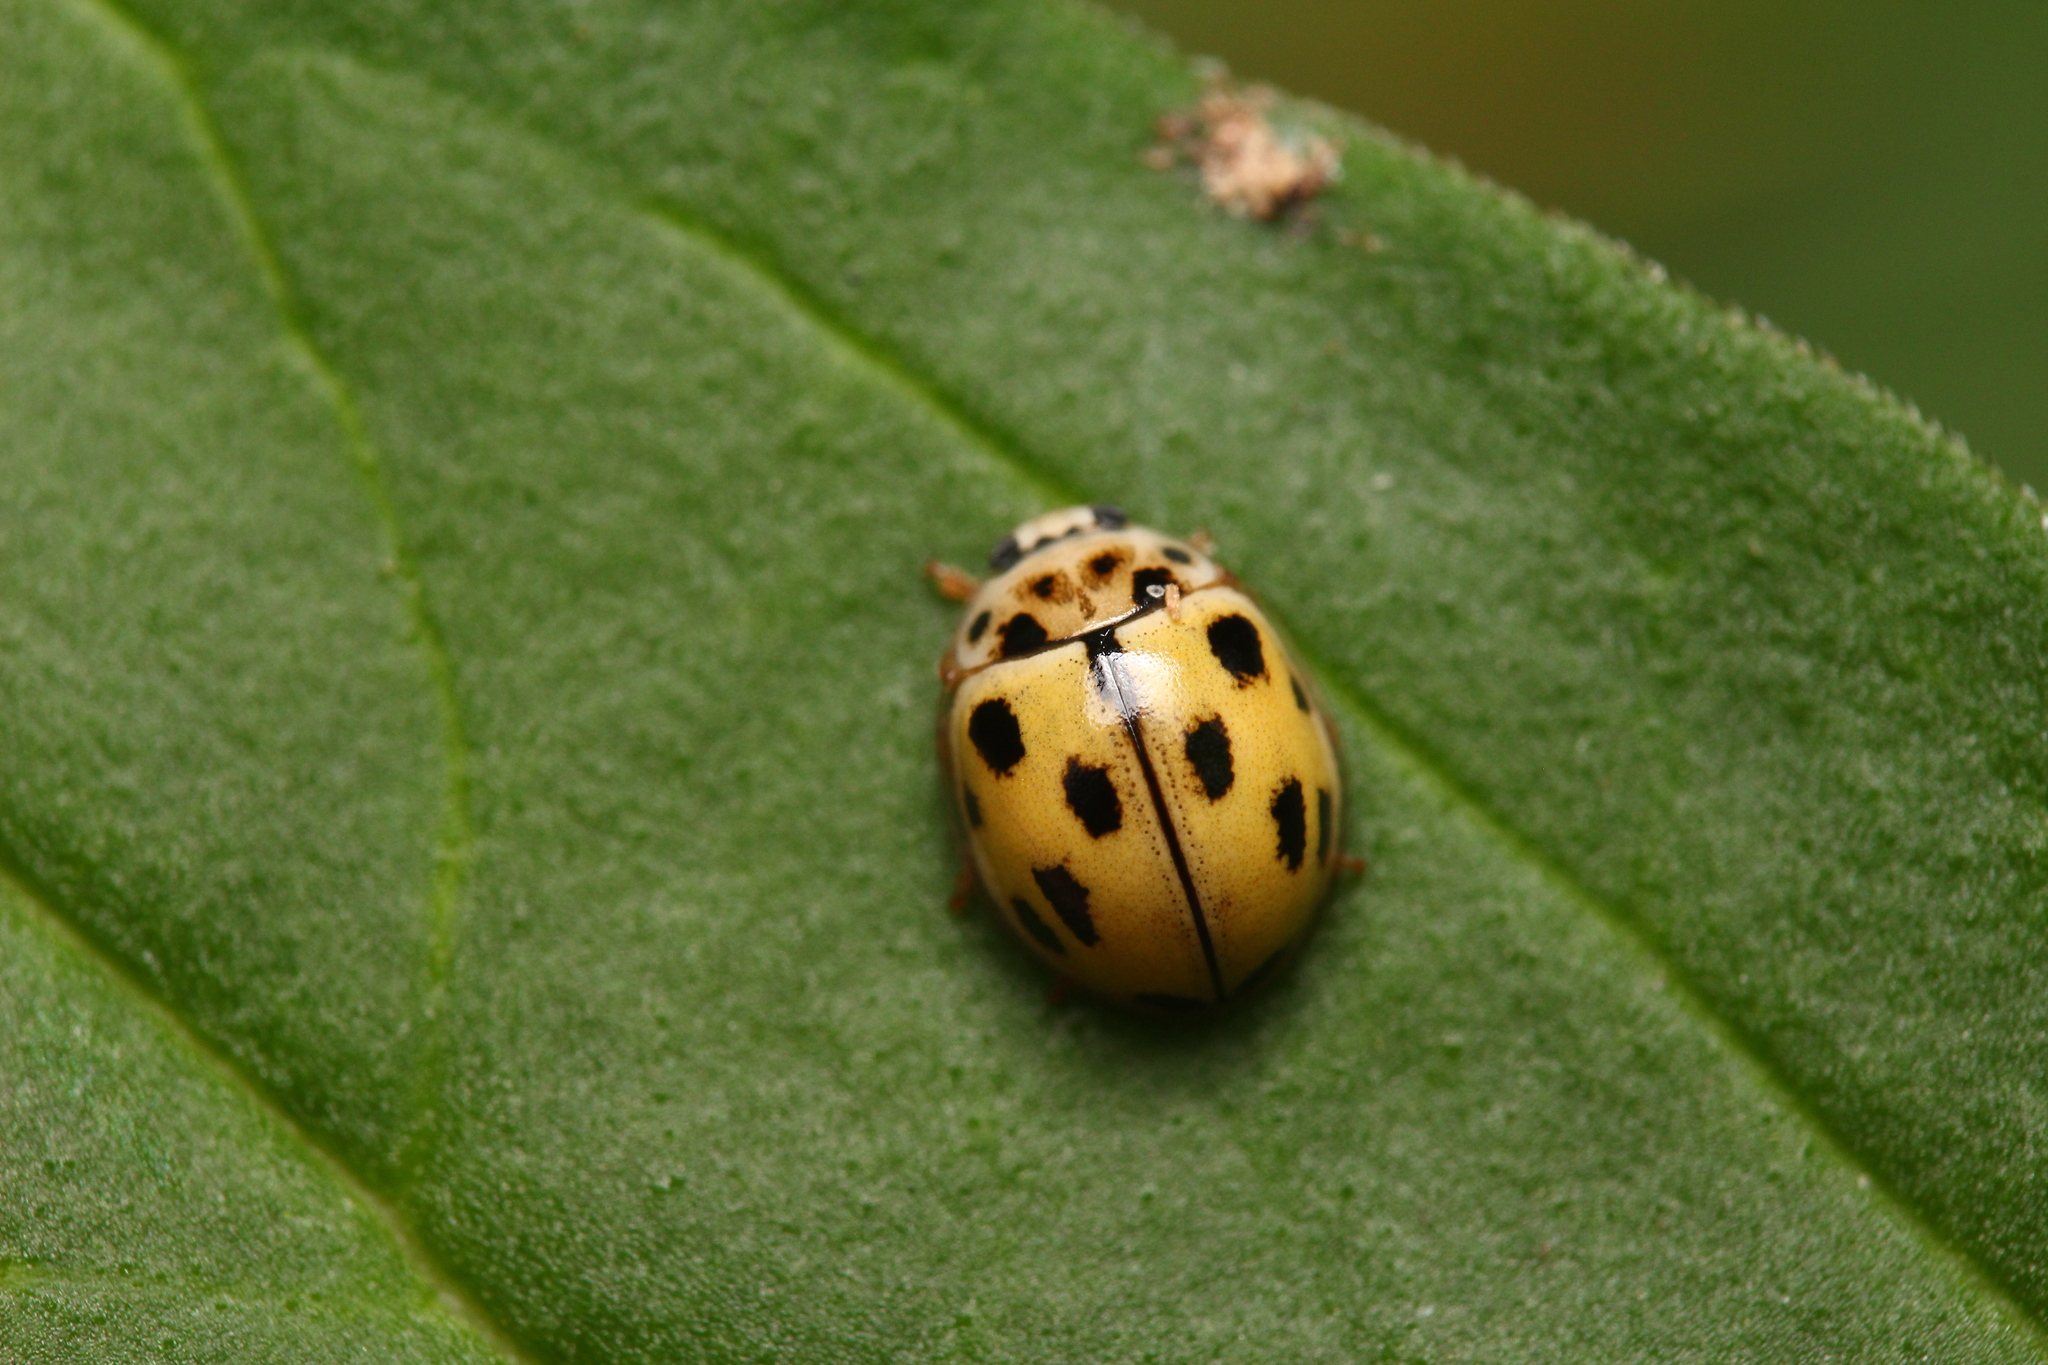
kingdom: Animalia
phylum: Arthropoda
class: Insecta
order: Coleoptera
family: Coccinellidae
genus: Propylaea
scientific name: Propylaea quatuordecimpunctata
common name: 14-spotted ladybird beetle
